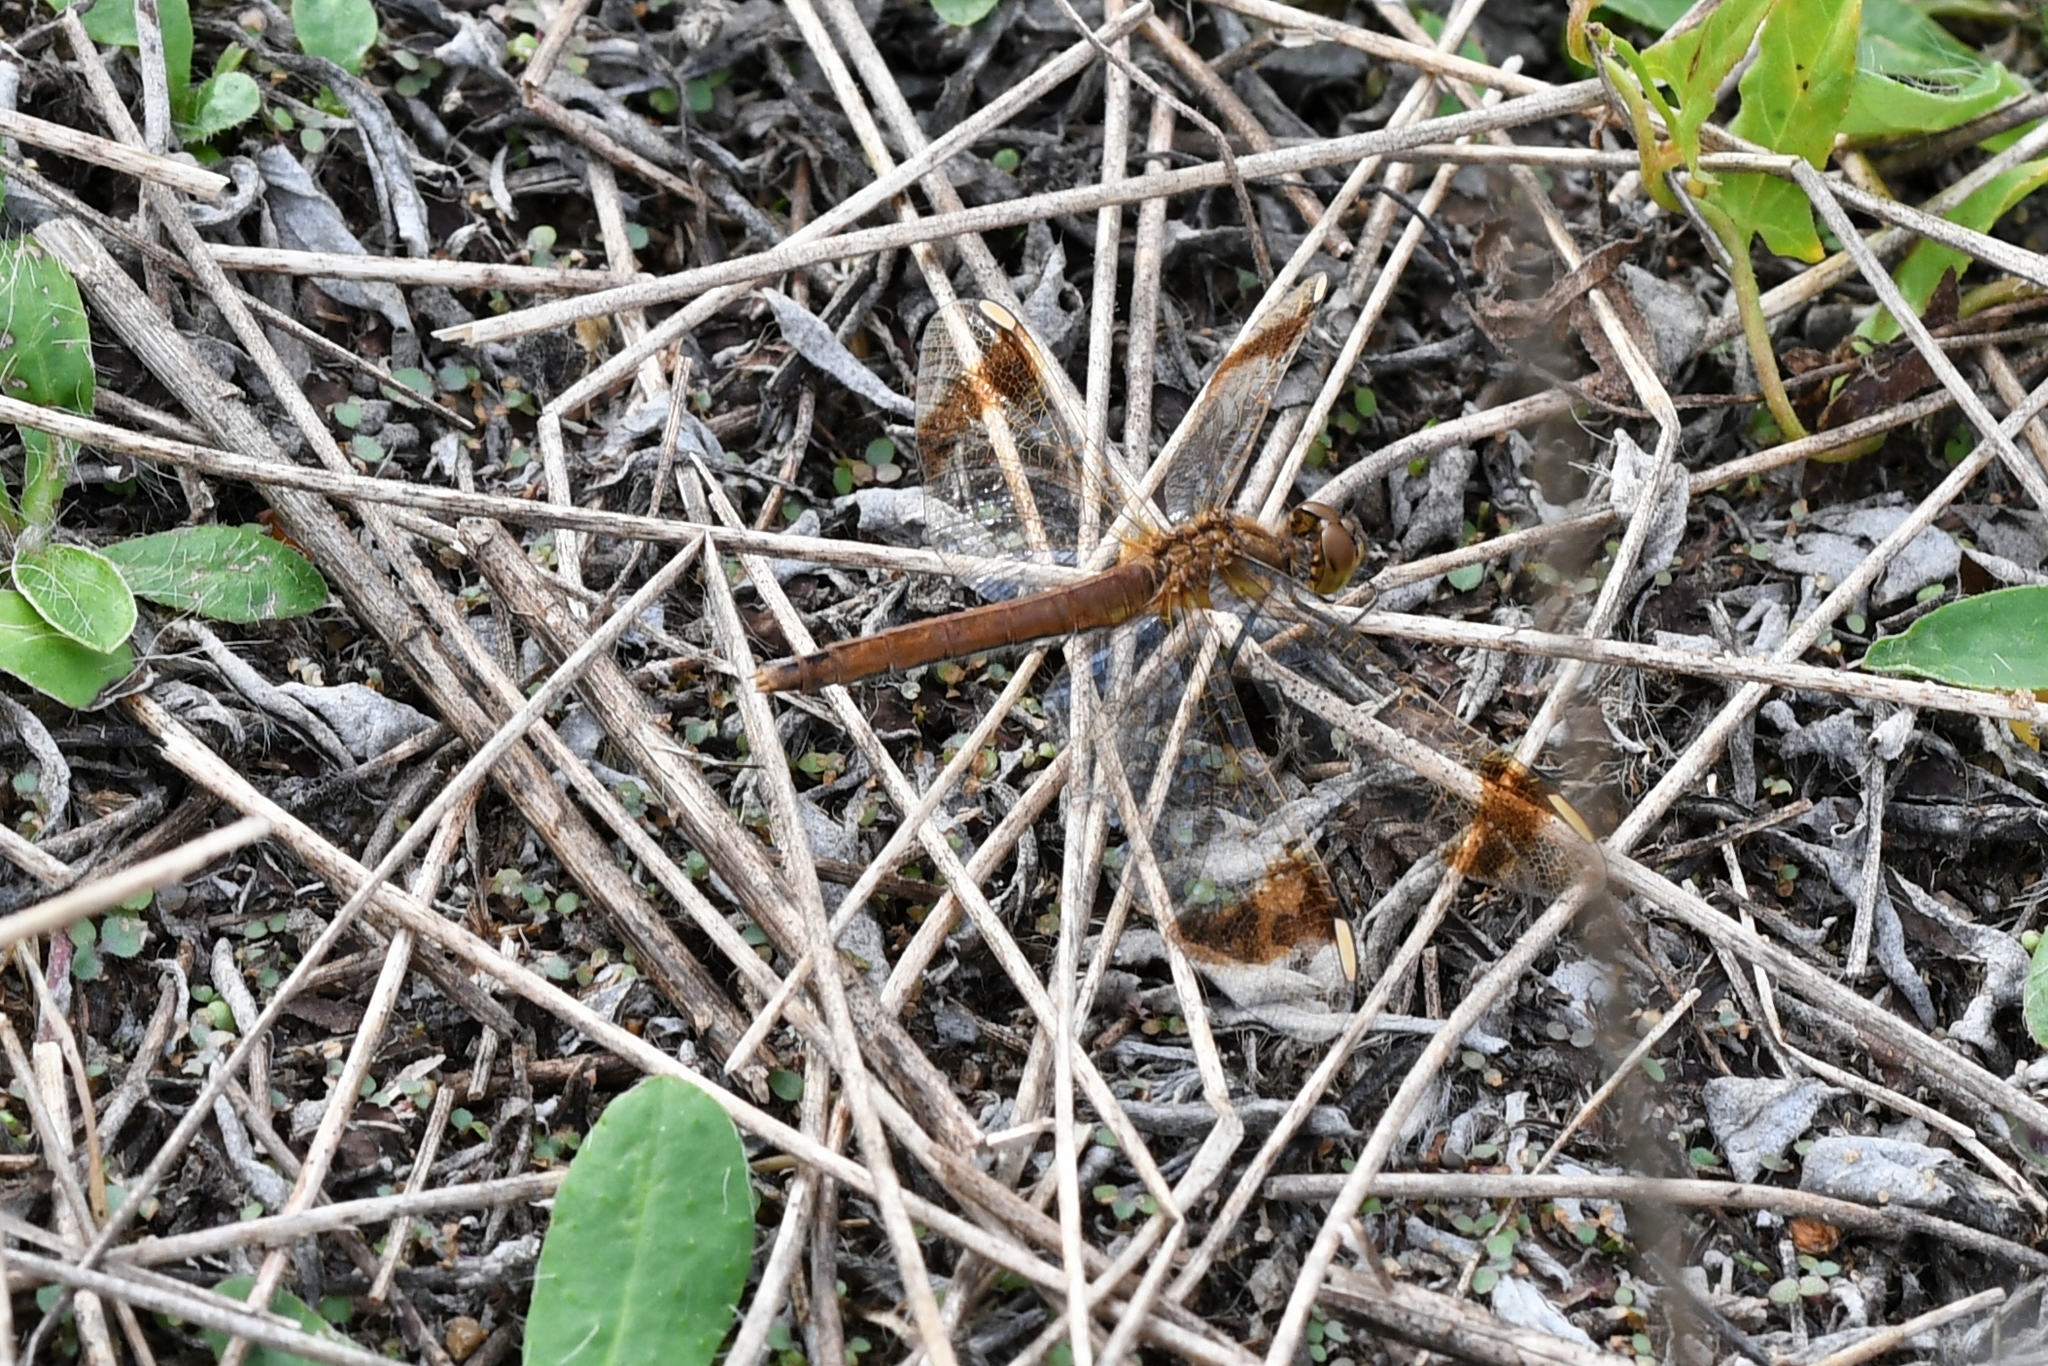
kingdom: Animalia
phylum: Arthropoda
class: Insecta
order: Odonata
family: Libellulidae
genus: Sympetrum
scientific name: Sympetrum pedemontanum
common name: Banded darter
